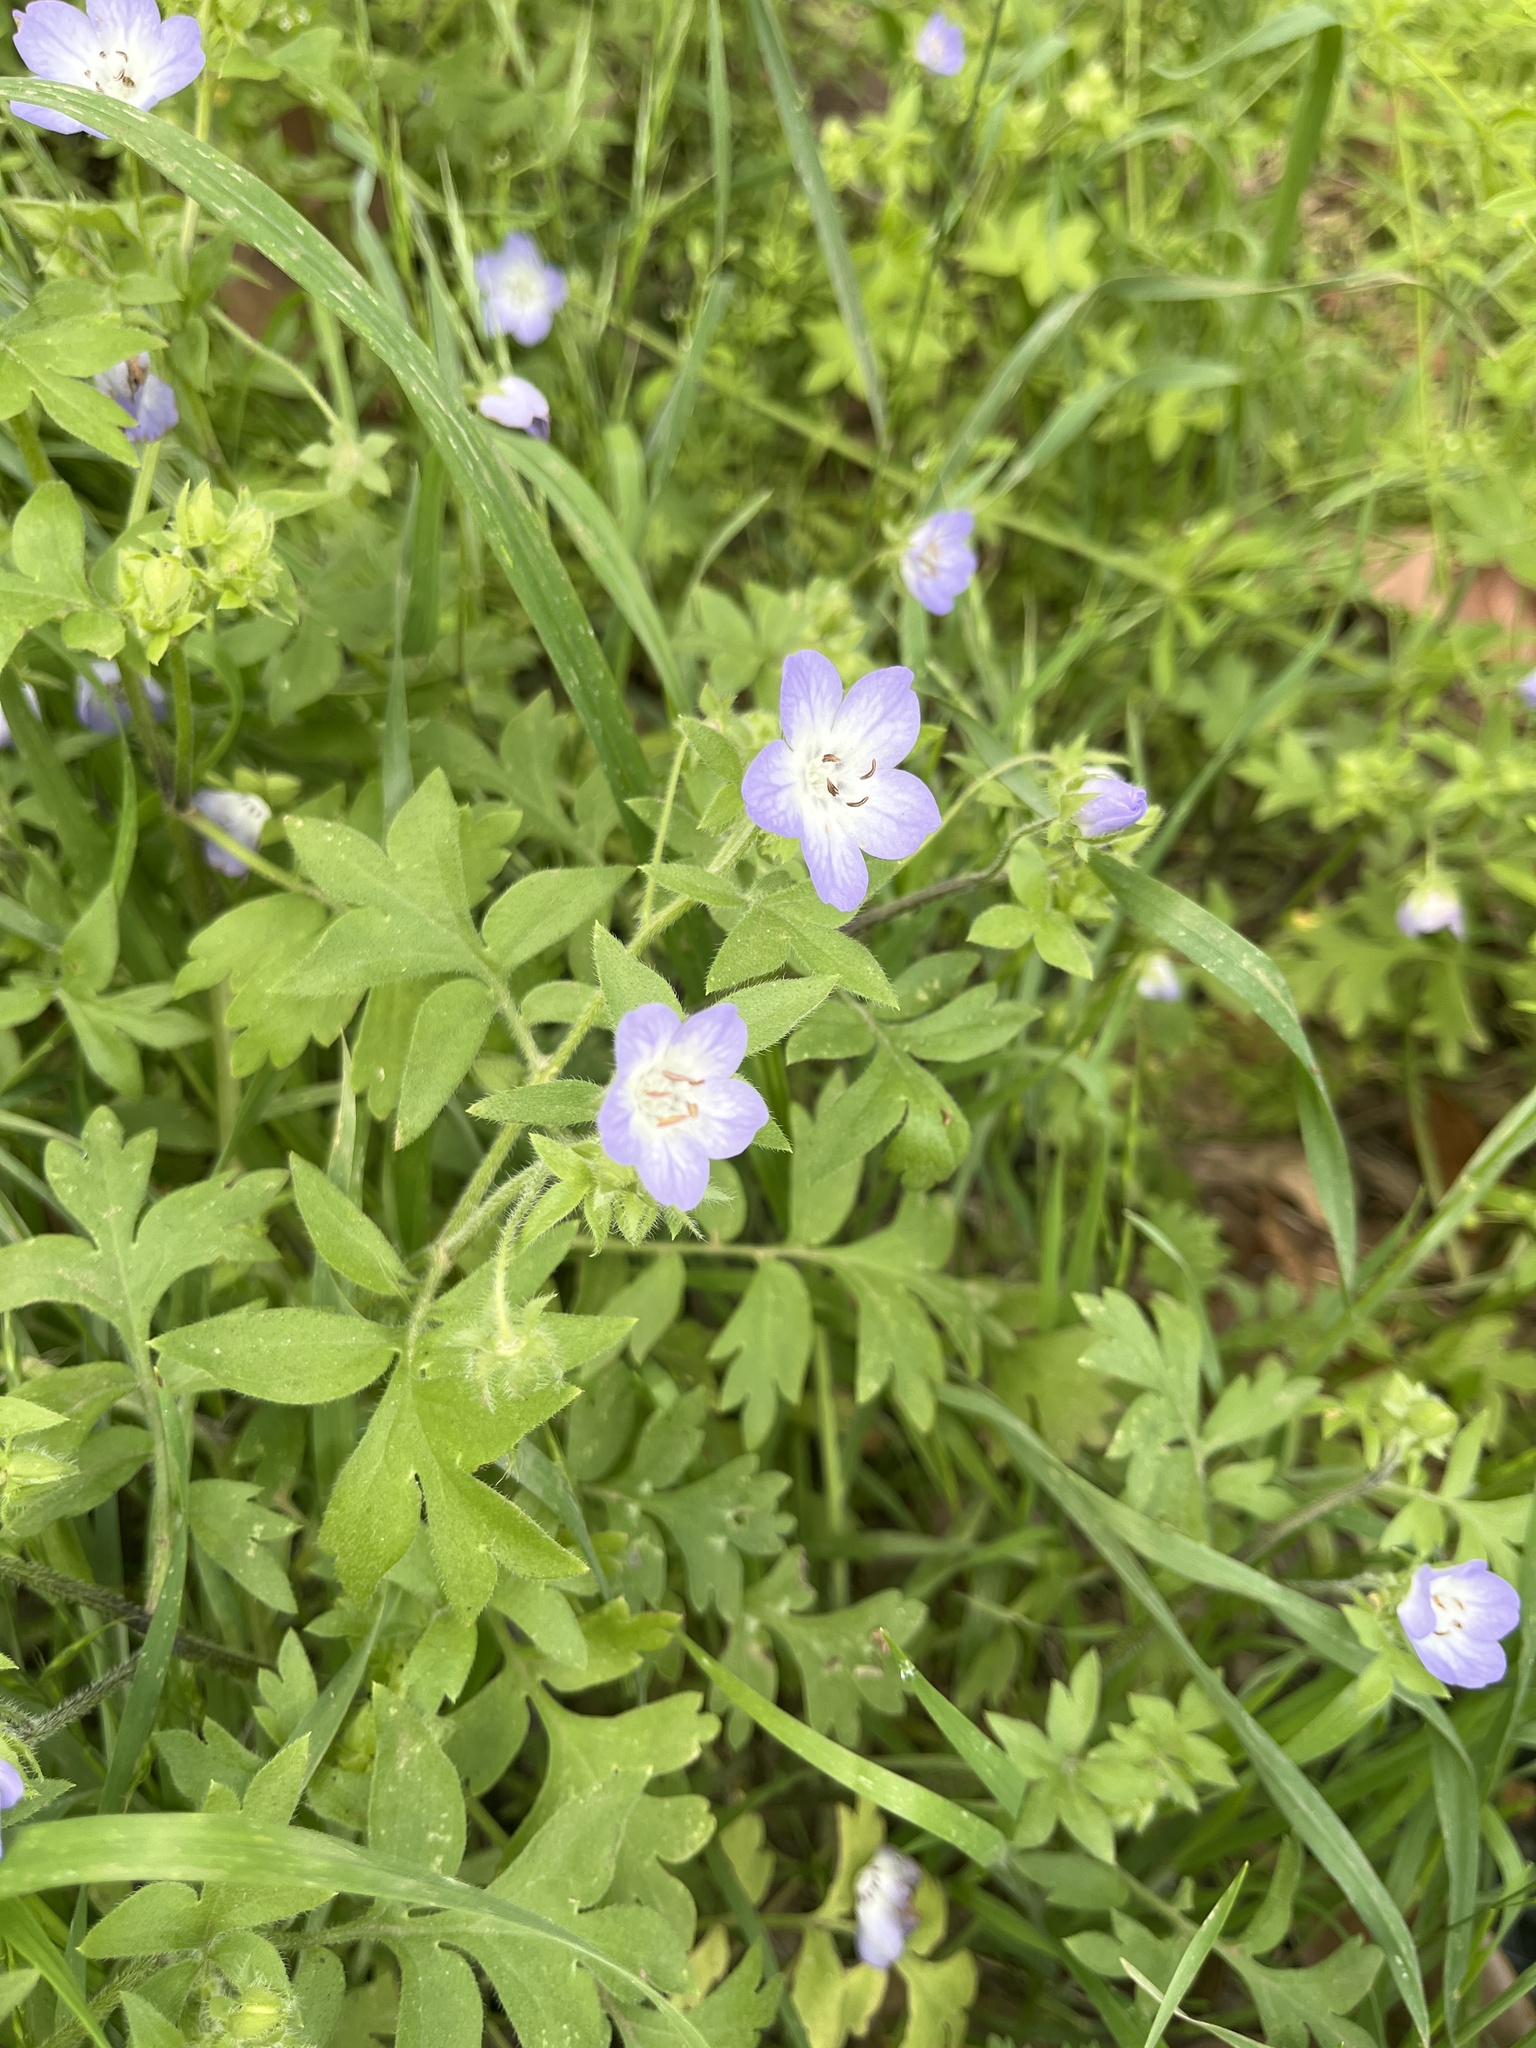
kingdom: Plantae
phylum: Tracheophyta
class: Magnoliopsida
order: Boraginales
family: Hydrophyllaceae
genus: Nemophila
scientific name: Nemophila phacelioides
